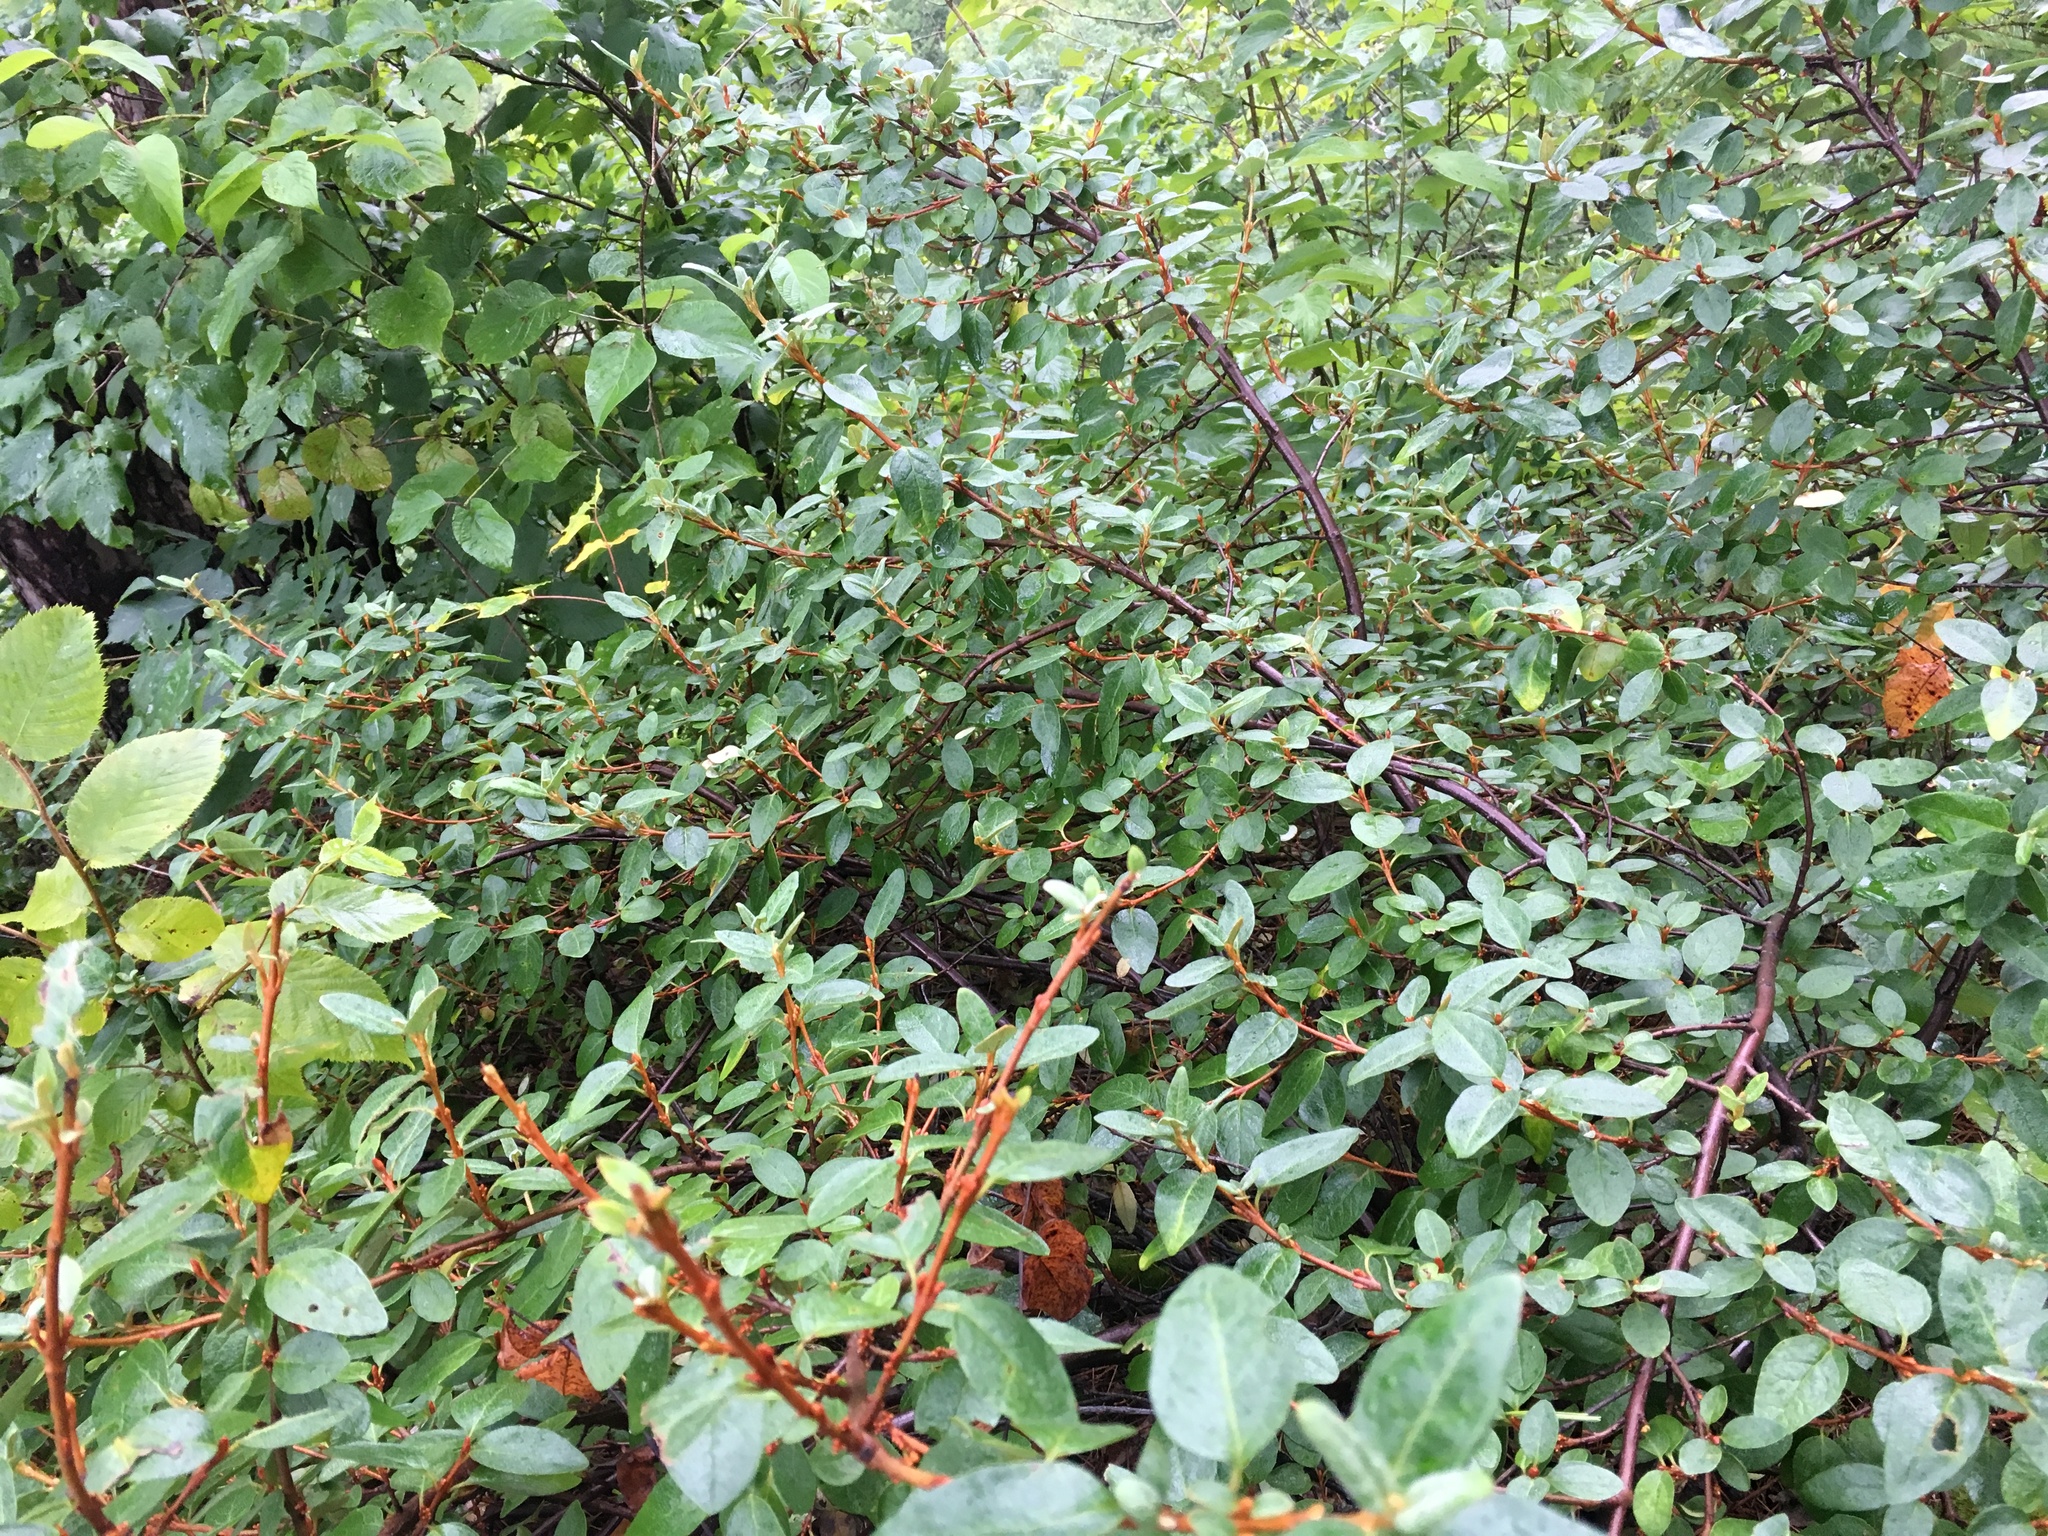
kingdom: Plantae
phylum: Tracheophyta
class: Magnoliopsida
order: Rosales
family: Elaeagnaceae
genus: Shepherdia
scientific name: Shepherdia canadensis
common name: Soapberry
